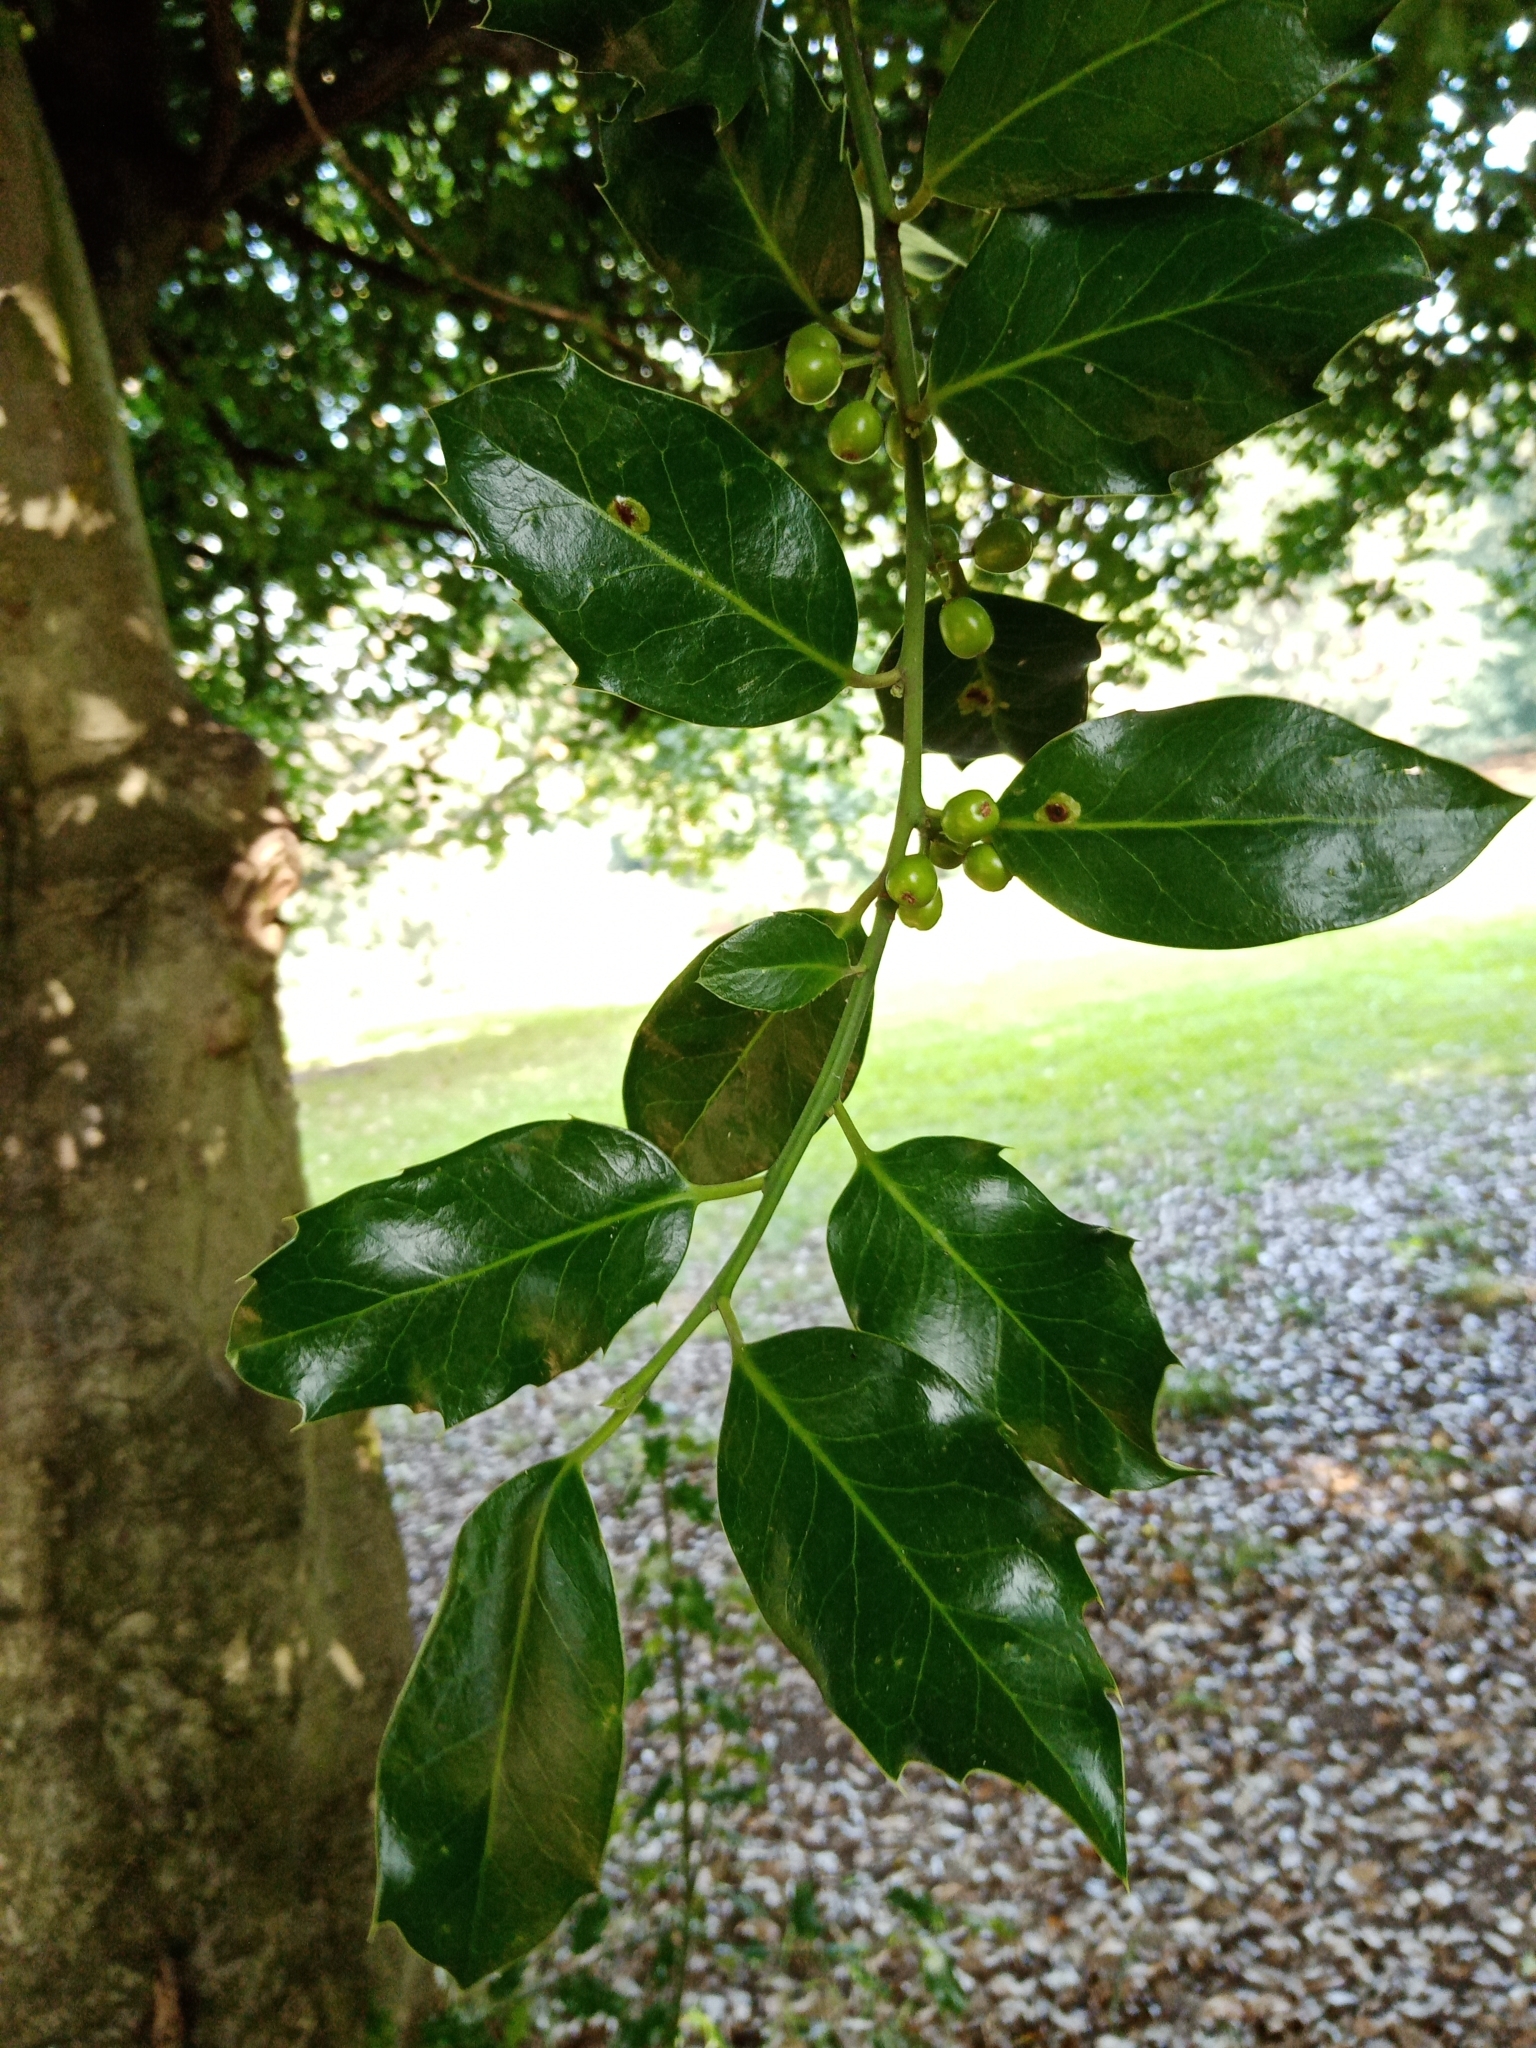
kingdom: Plantae
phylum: Tracheophyta
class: Magnoliopsida
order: Aquifoliales
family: Aquifoliaceae
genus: Ilex
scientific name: Ilex aquifolium
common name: English holly
